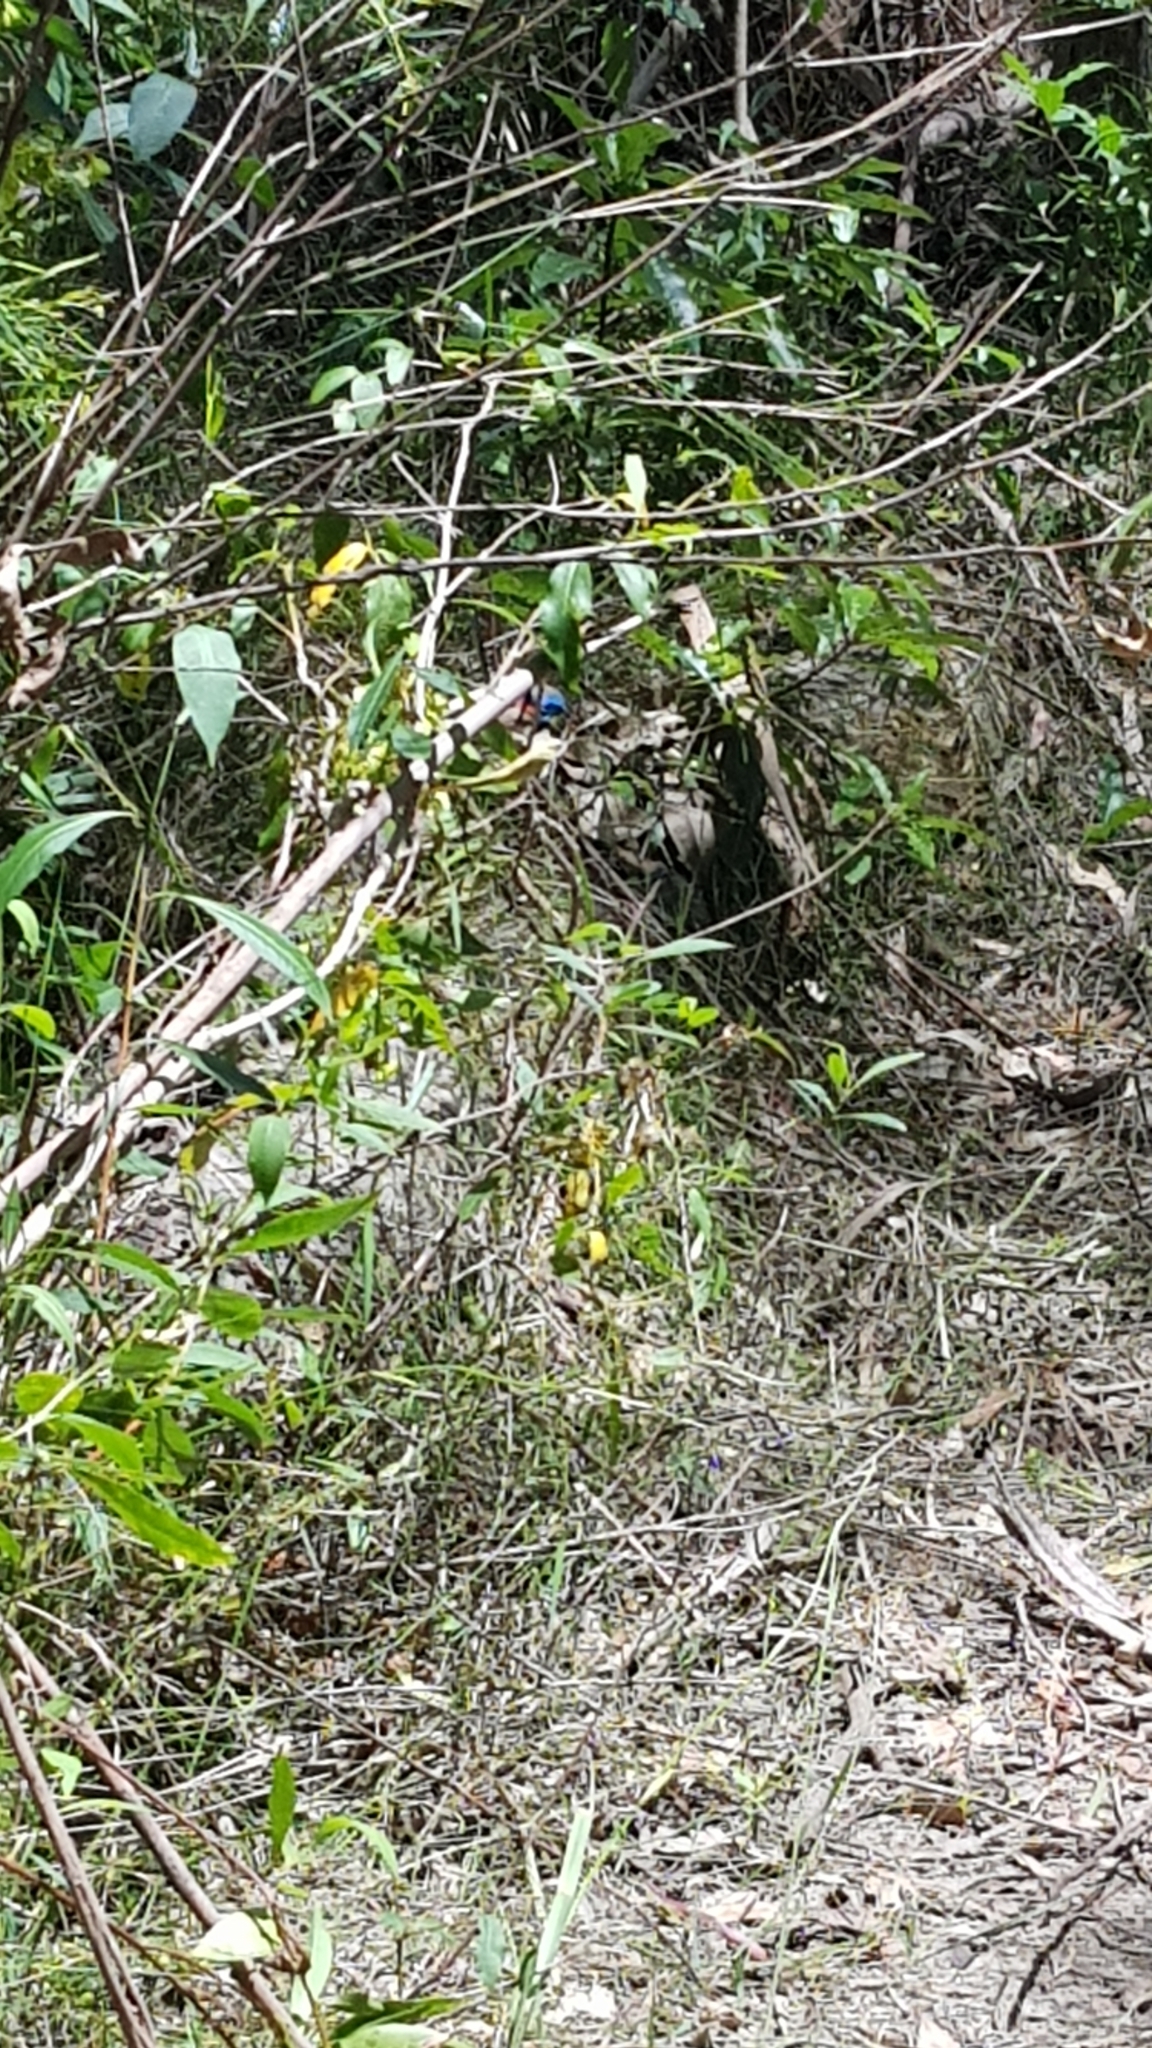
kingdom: Animalia
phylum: Chordata
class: Aves
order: Passeriformes
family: Maluridae
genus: Malurus
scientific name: Malurus lamberti
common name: Variegated fairywren
